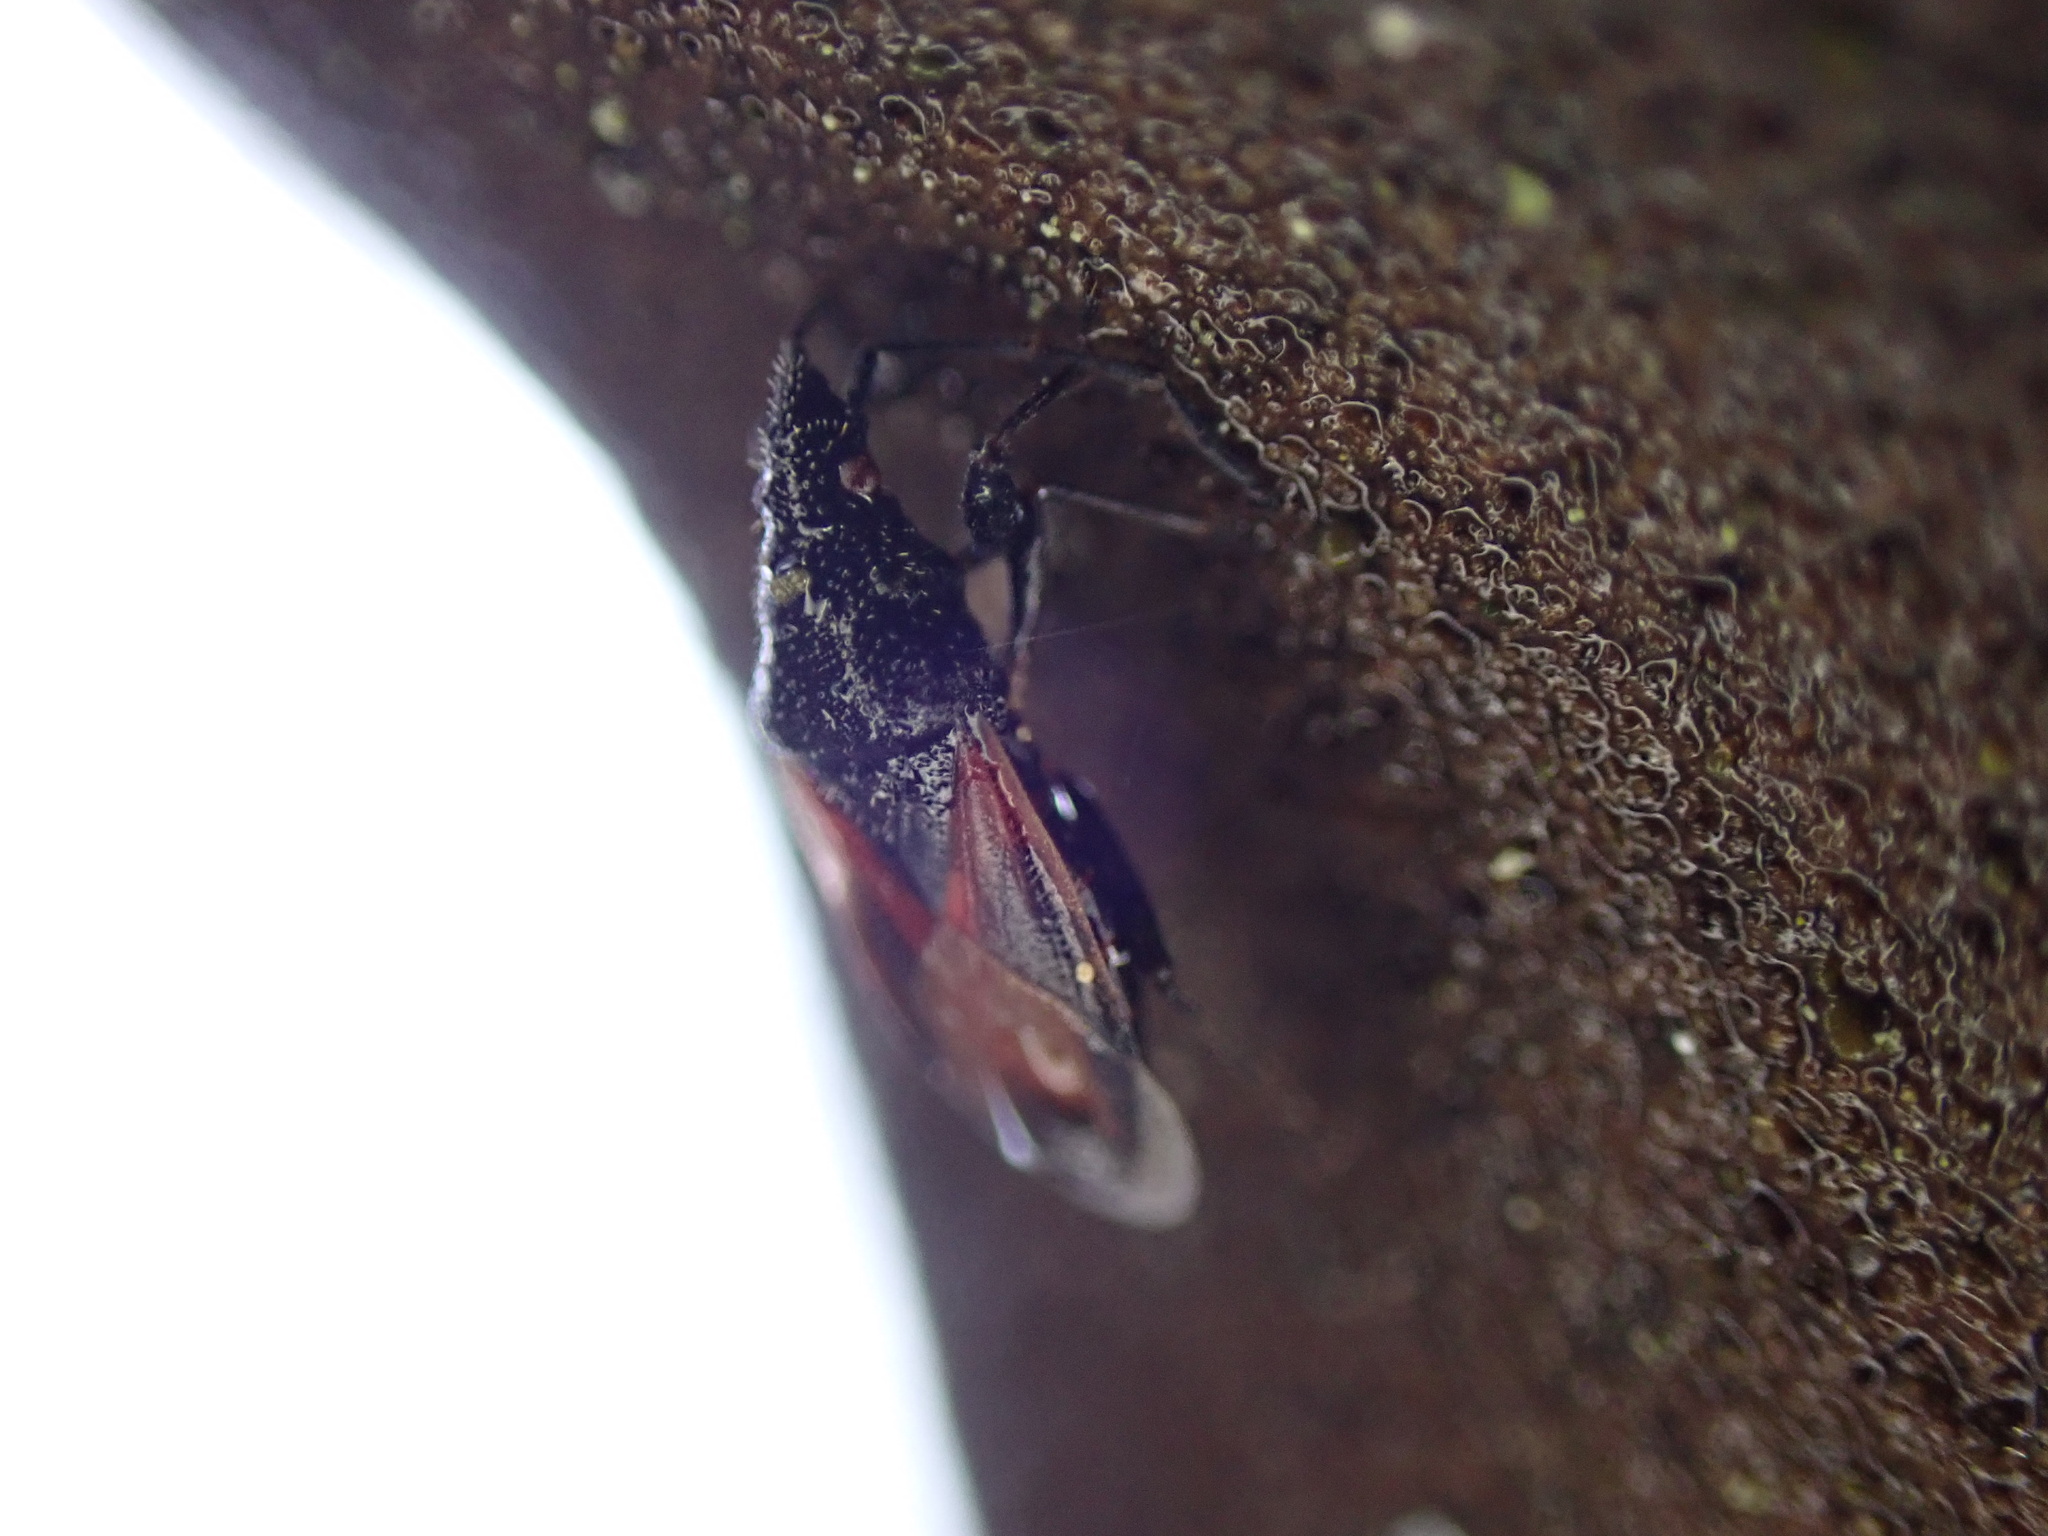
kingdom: Animalia
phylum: Arthropoda
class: Insecta
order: Hemiptera
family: Oxycarenidae
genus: Oxycarenus
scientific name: Oxycarenus lavaterae
